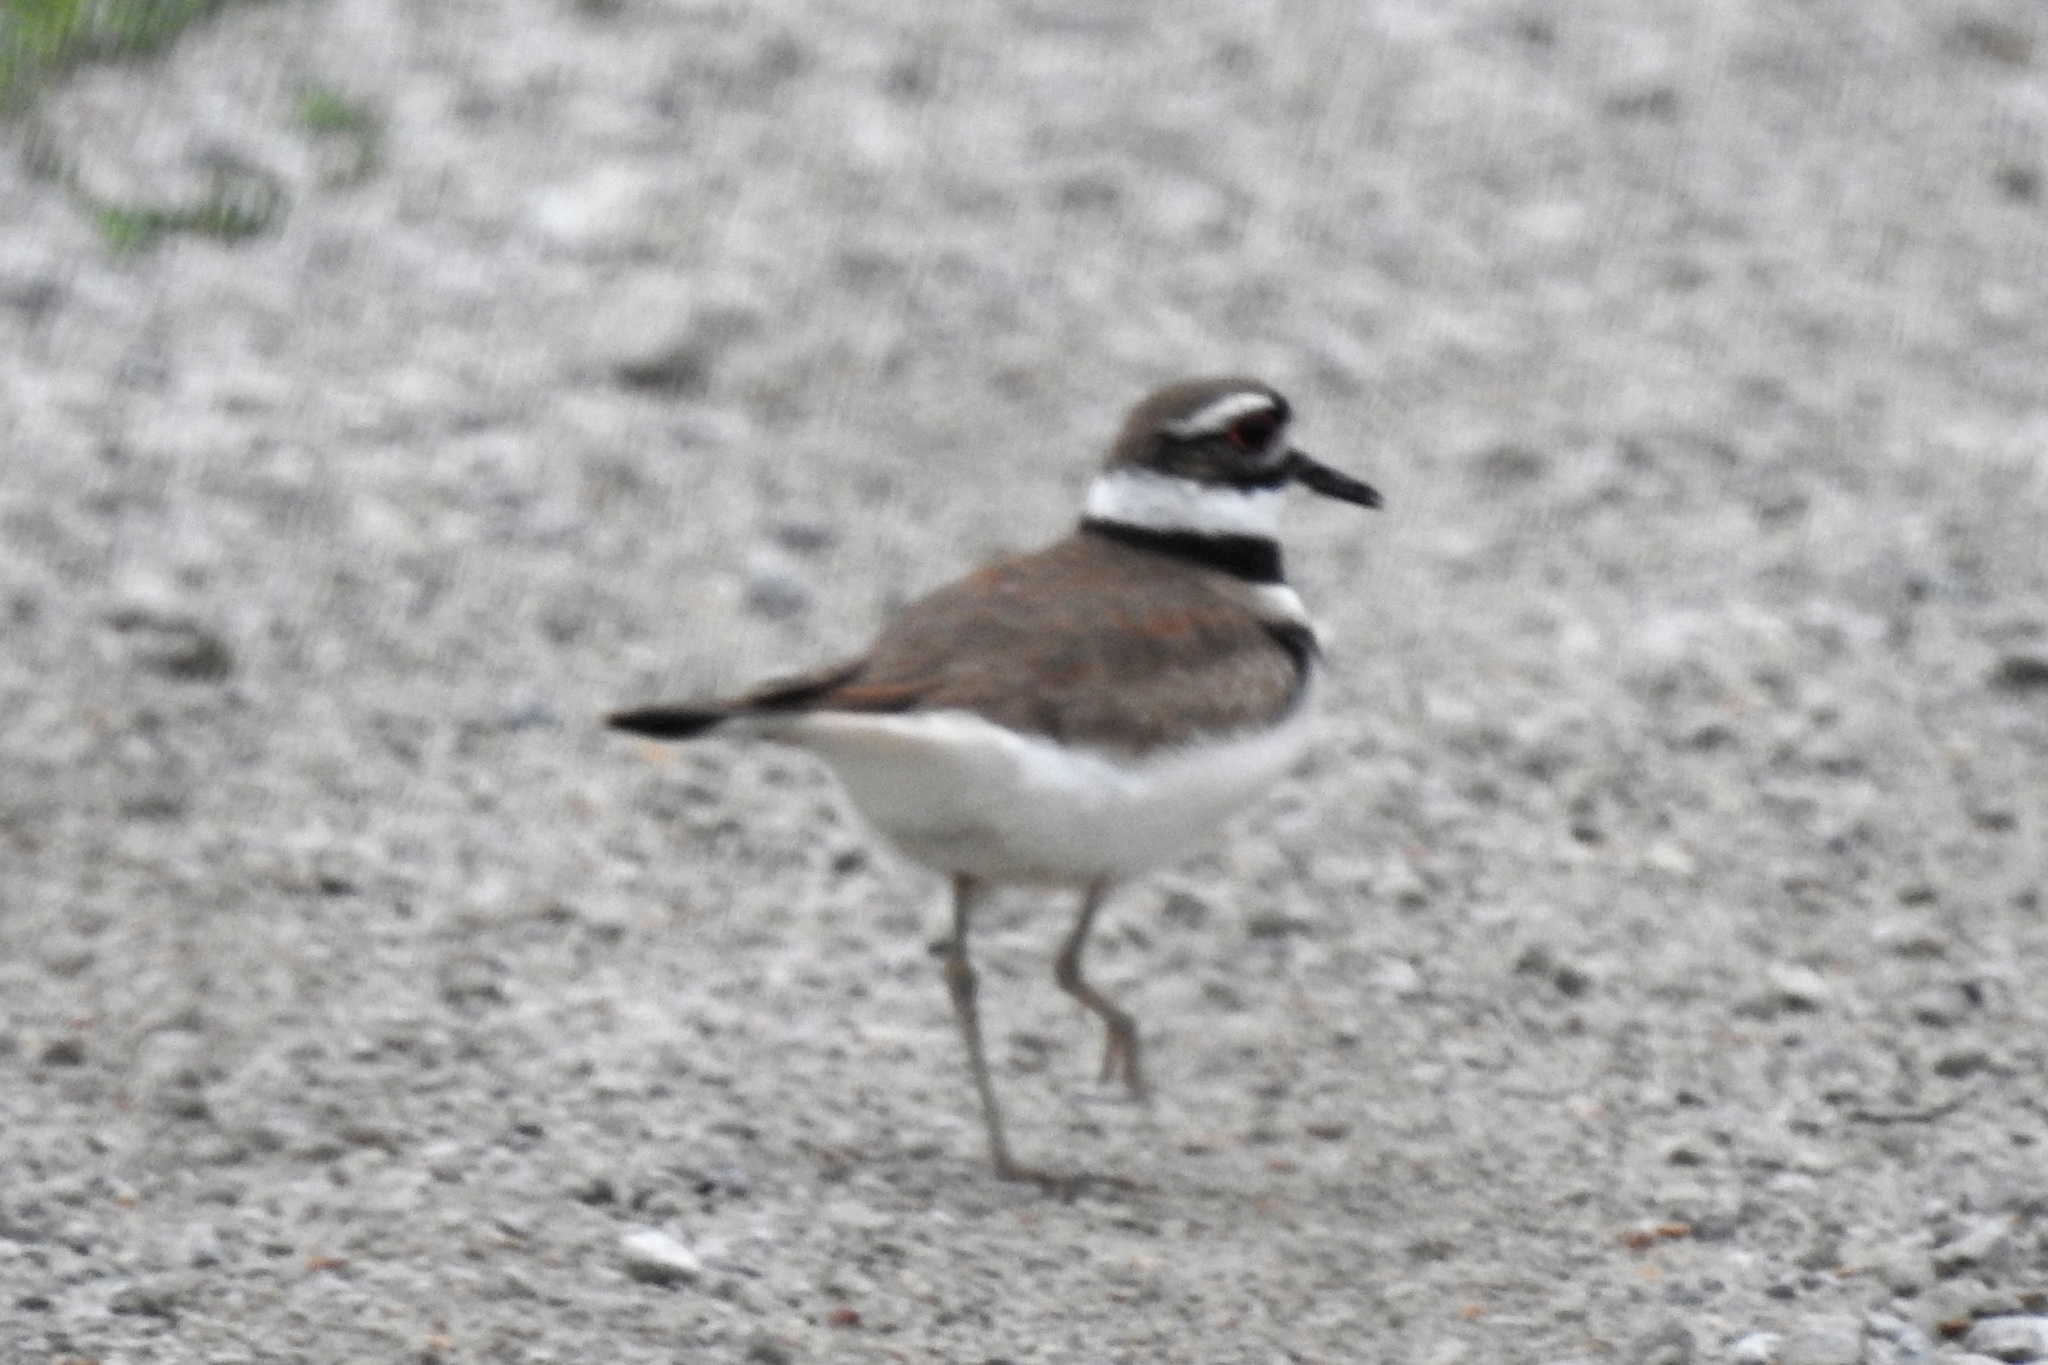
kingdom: Animalia
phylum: Chordata
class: Aves
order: Charadriiformes
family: Charadriidae
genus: Charadrius
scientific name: Charadrius vociferus
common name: Killdeer
